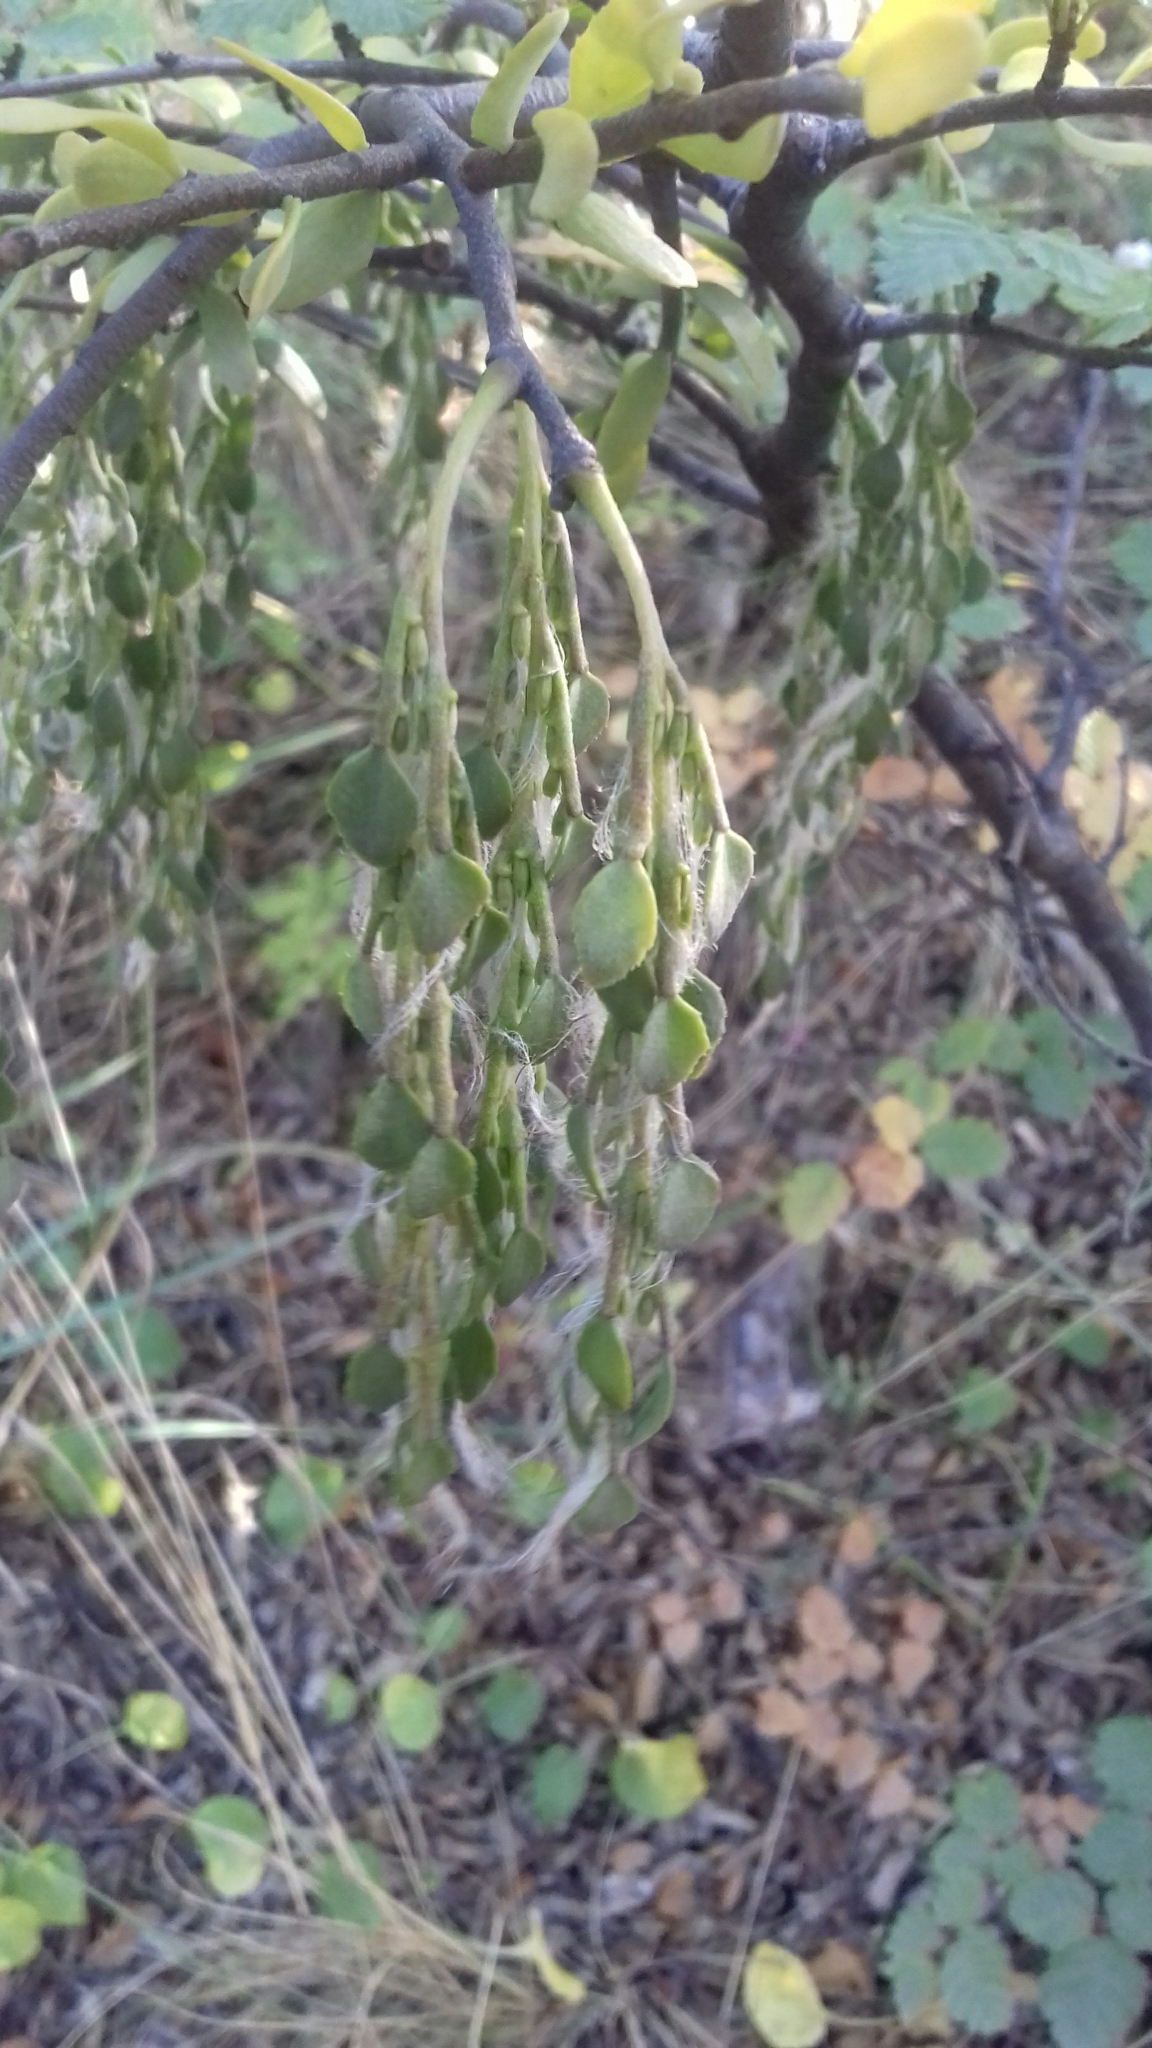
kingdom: Plantae
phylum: Tracheophyta
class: Magnoliopsida
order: Santalales
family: Misodendraceae
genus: Misodendrum
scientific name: Misodendrum quadriflorum
